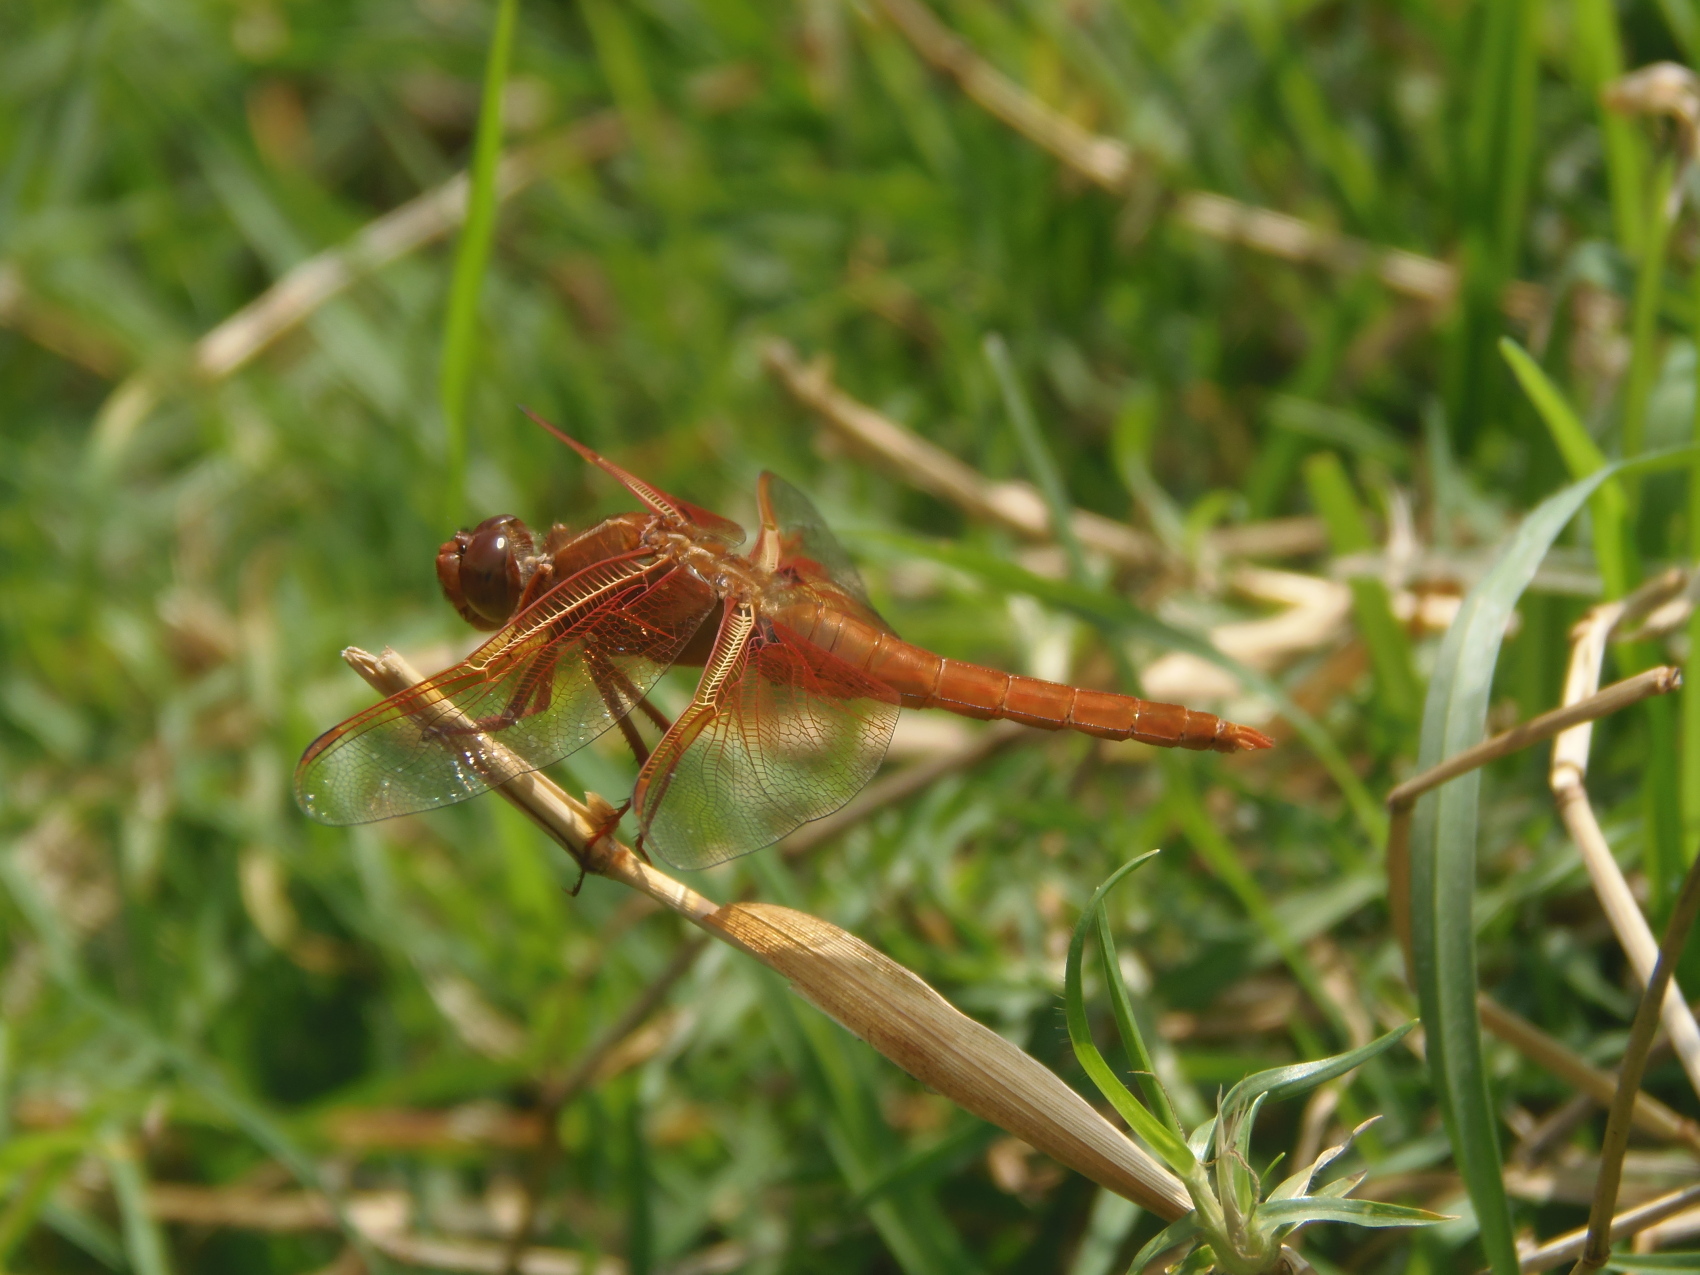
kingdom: Animalia
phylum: Arthropoda
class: Insecta
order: Odonata
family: Libellulidae
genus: Libellula
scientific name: Libellula saturata
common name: Flame skimmer
